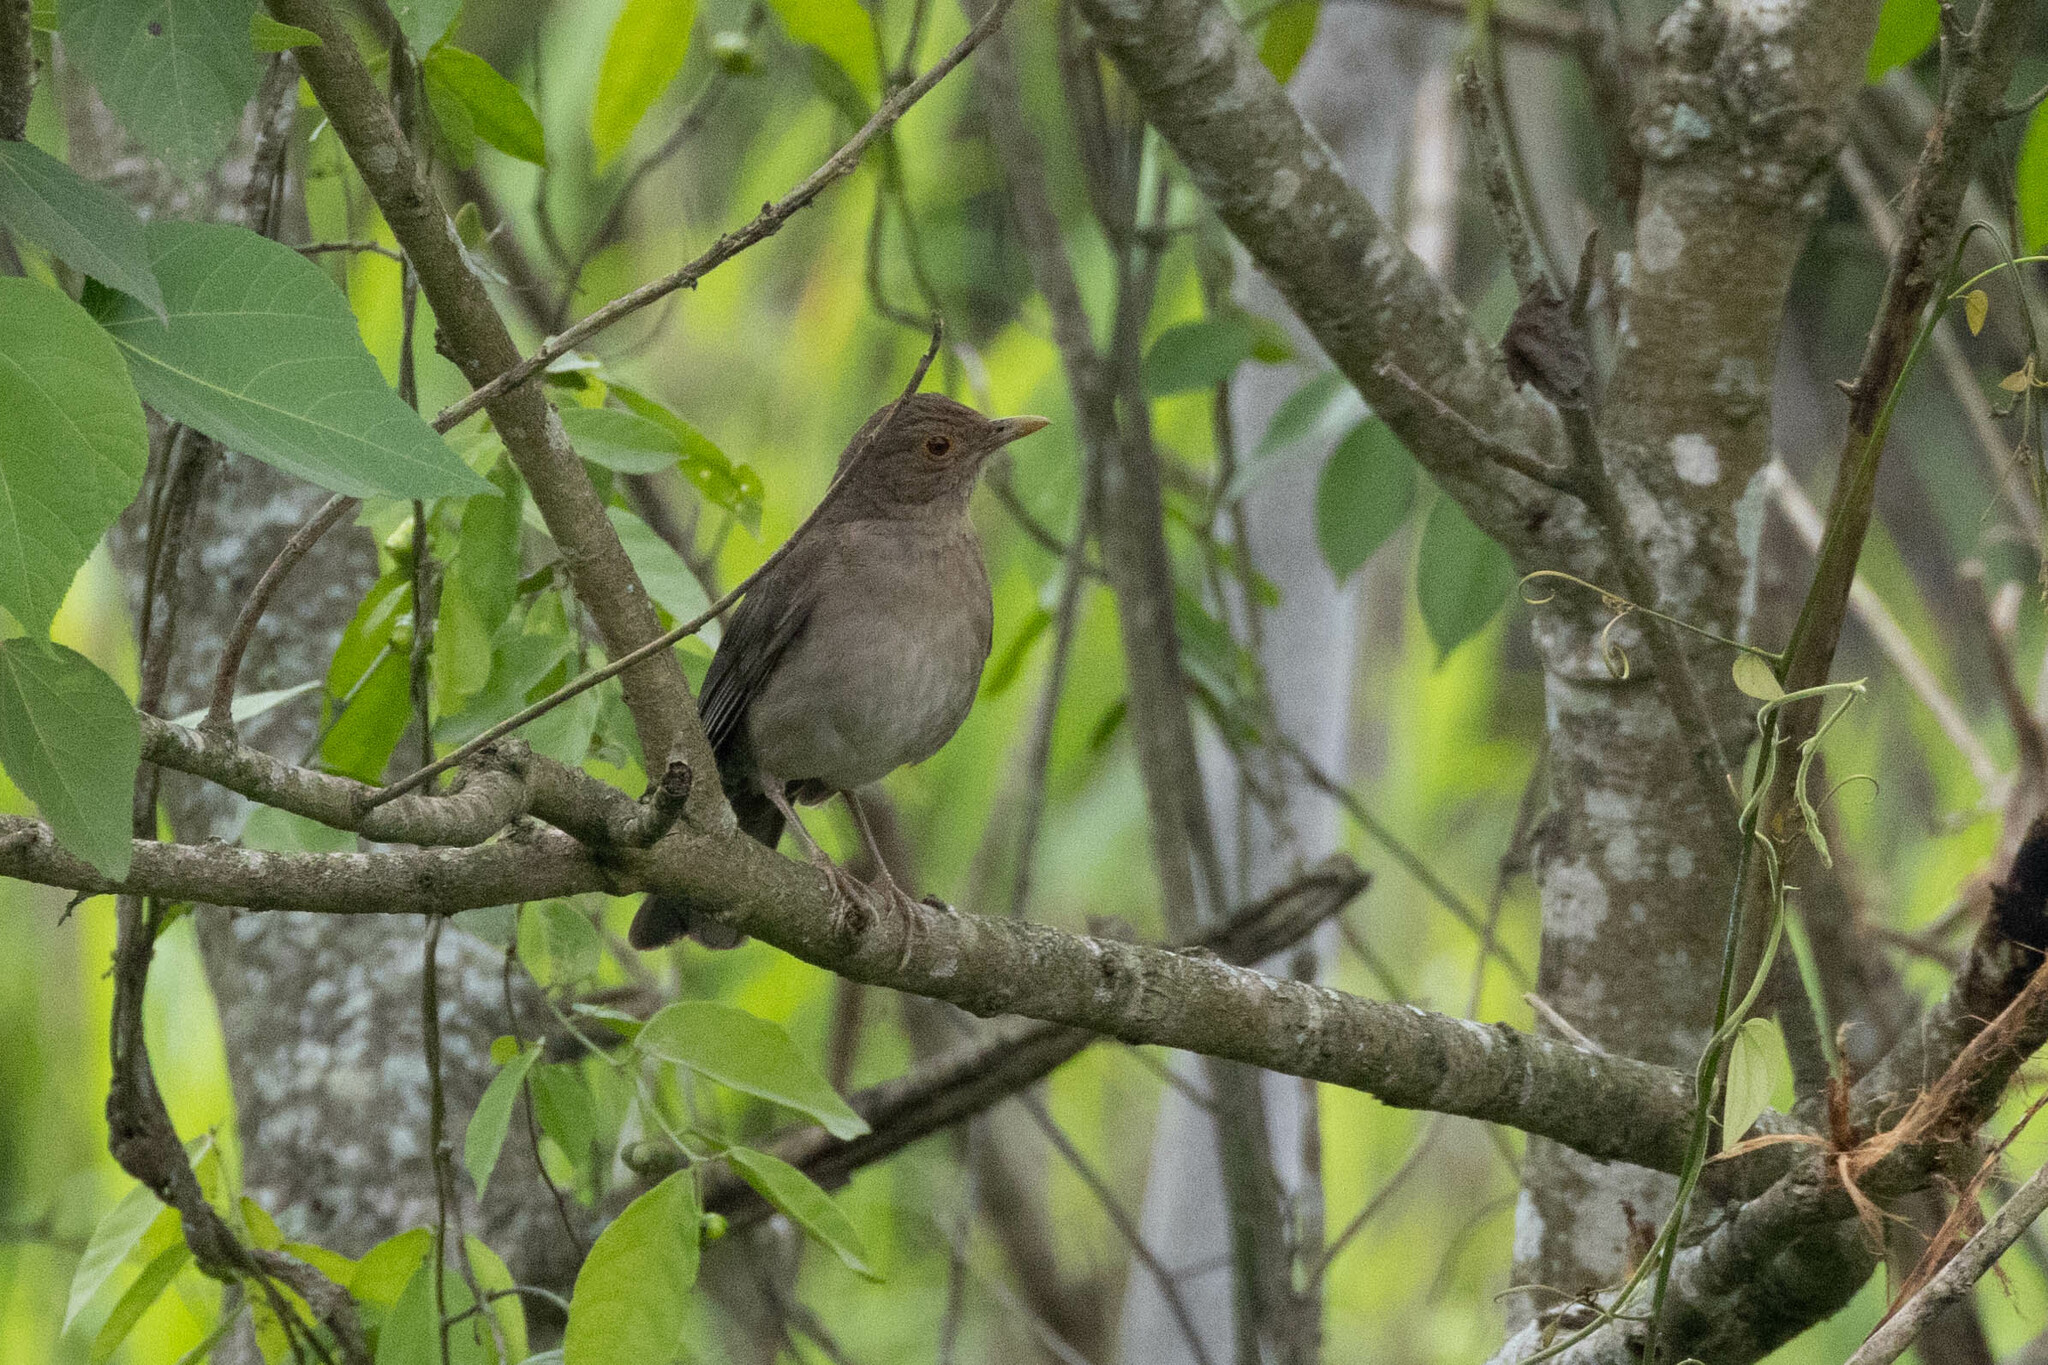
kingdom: Animalia
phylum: Chordata
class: Aves
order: Passeriformes
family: Turdidae
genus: Turdus
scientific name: Turdus maculirostris
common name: Ecuadorian thrush
